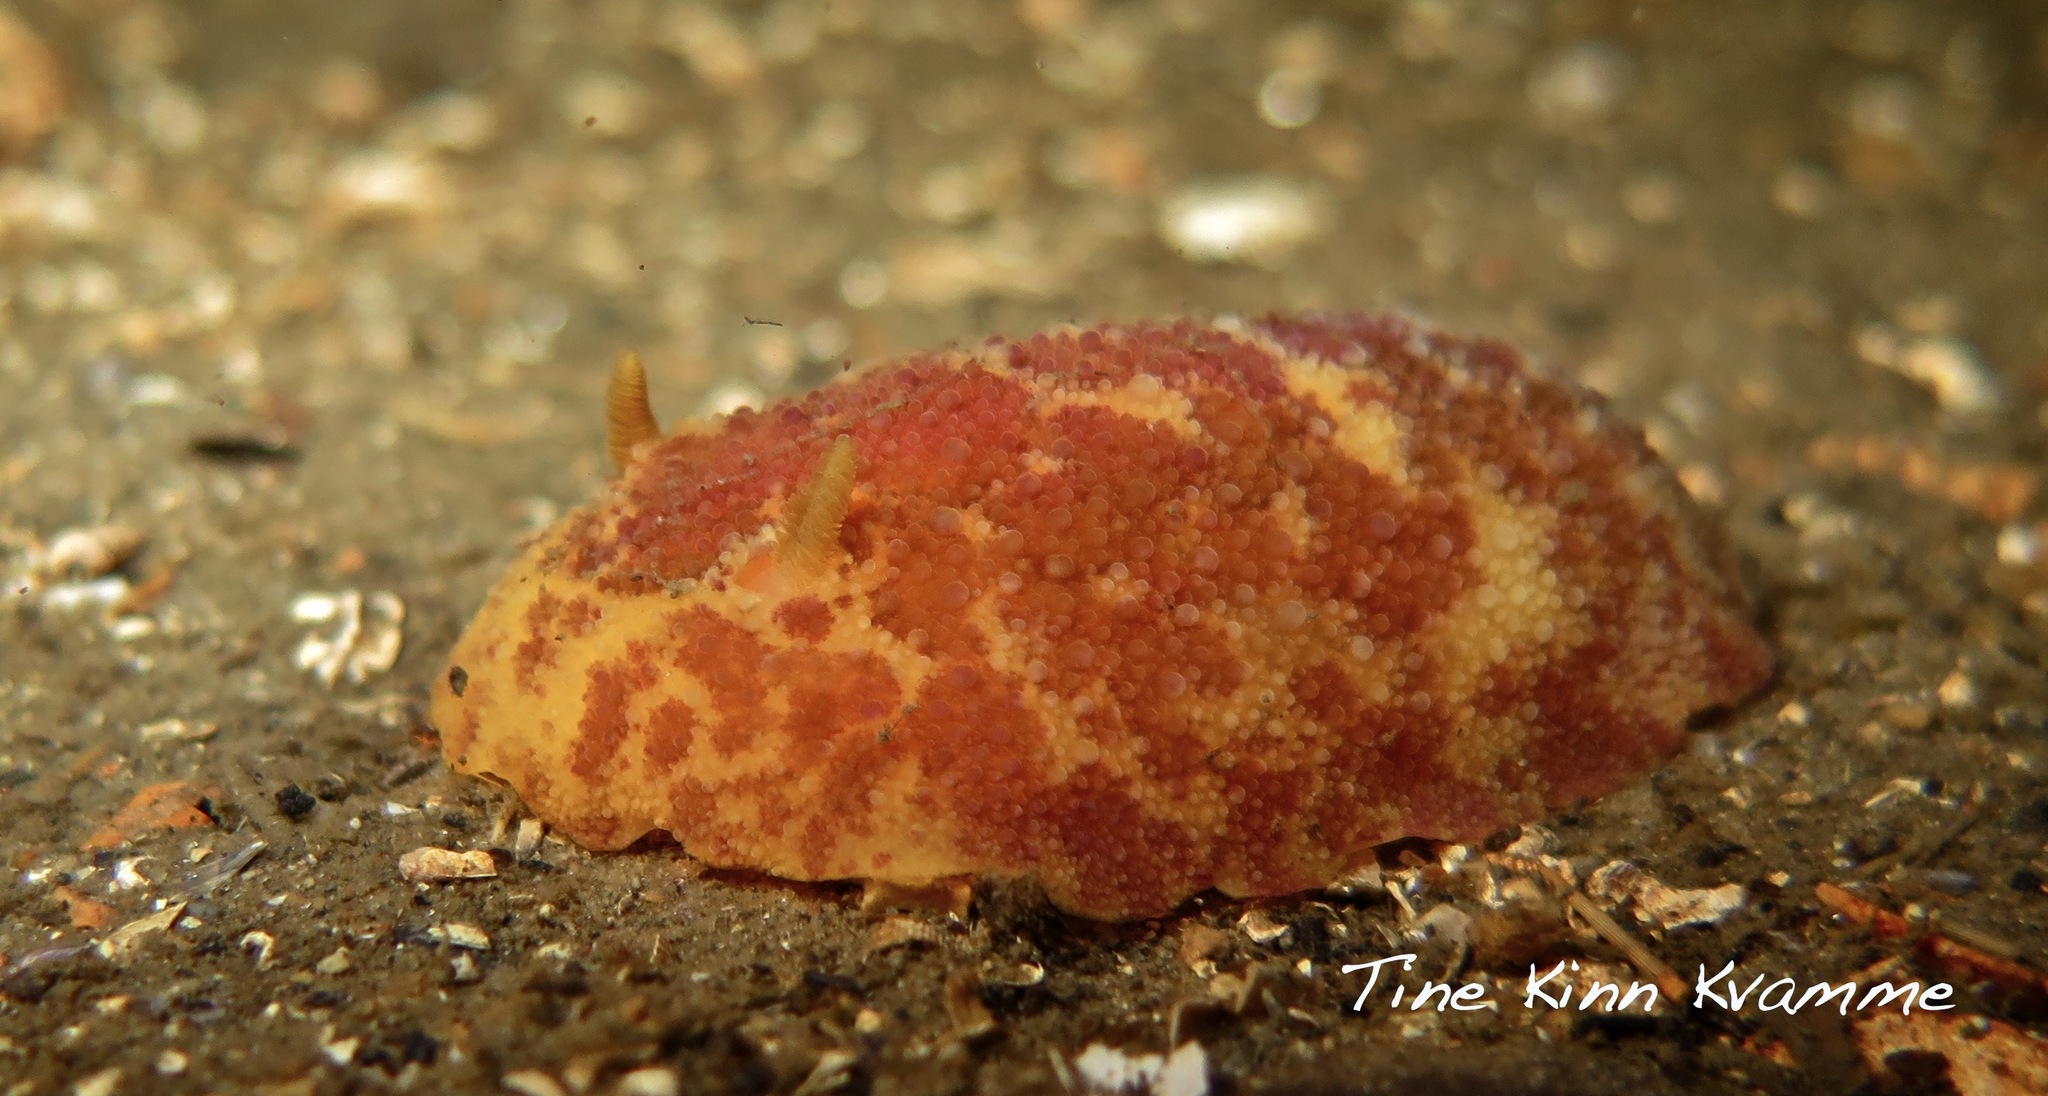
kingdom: Animalia
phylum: Mollusca
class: Gastropoda
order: Nudibranchia
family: Dorididae
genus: Doris
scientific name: Doris pseudoargus
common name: Sea lemon
